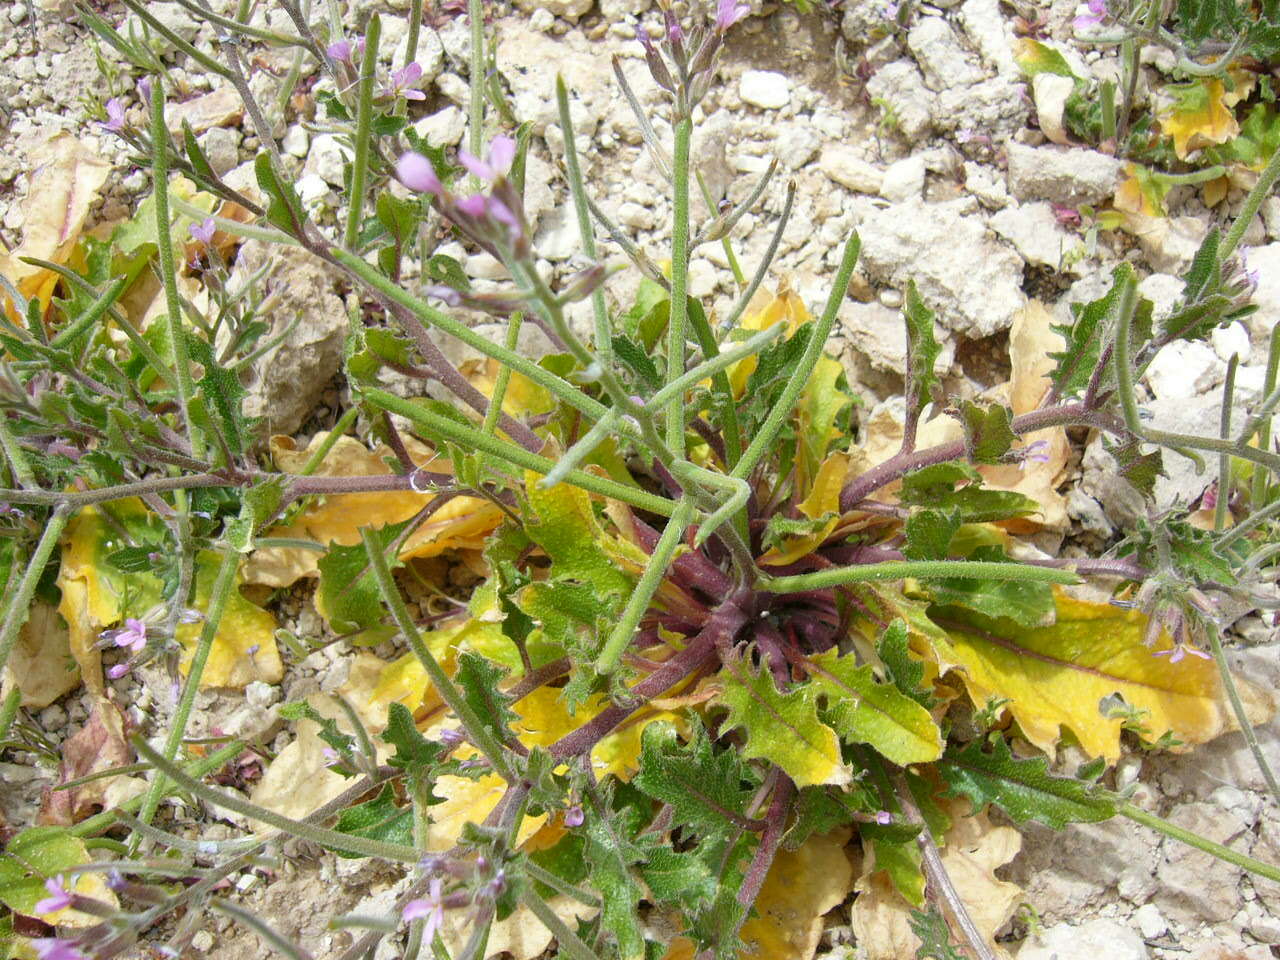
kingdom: Plantae
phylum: Tracheophyta
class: Magnoliopsida
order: Brassicales
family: Brassicaceae
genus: Strigosella
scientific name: Strigosella africana
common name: African mustard
